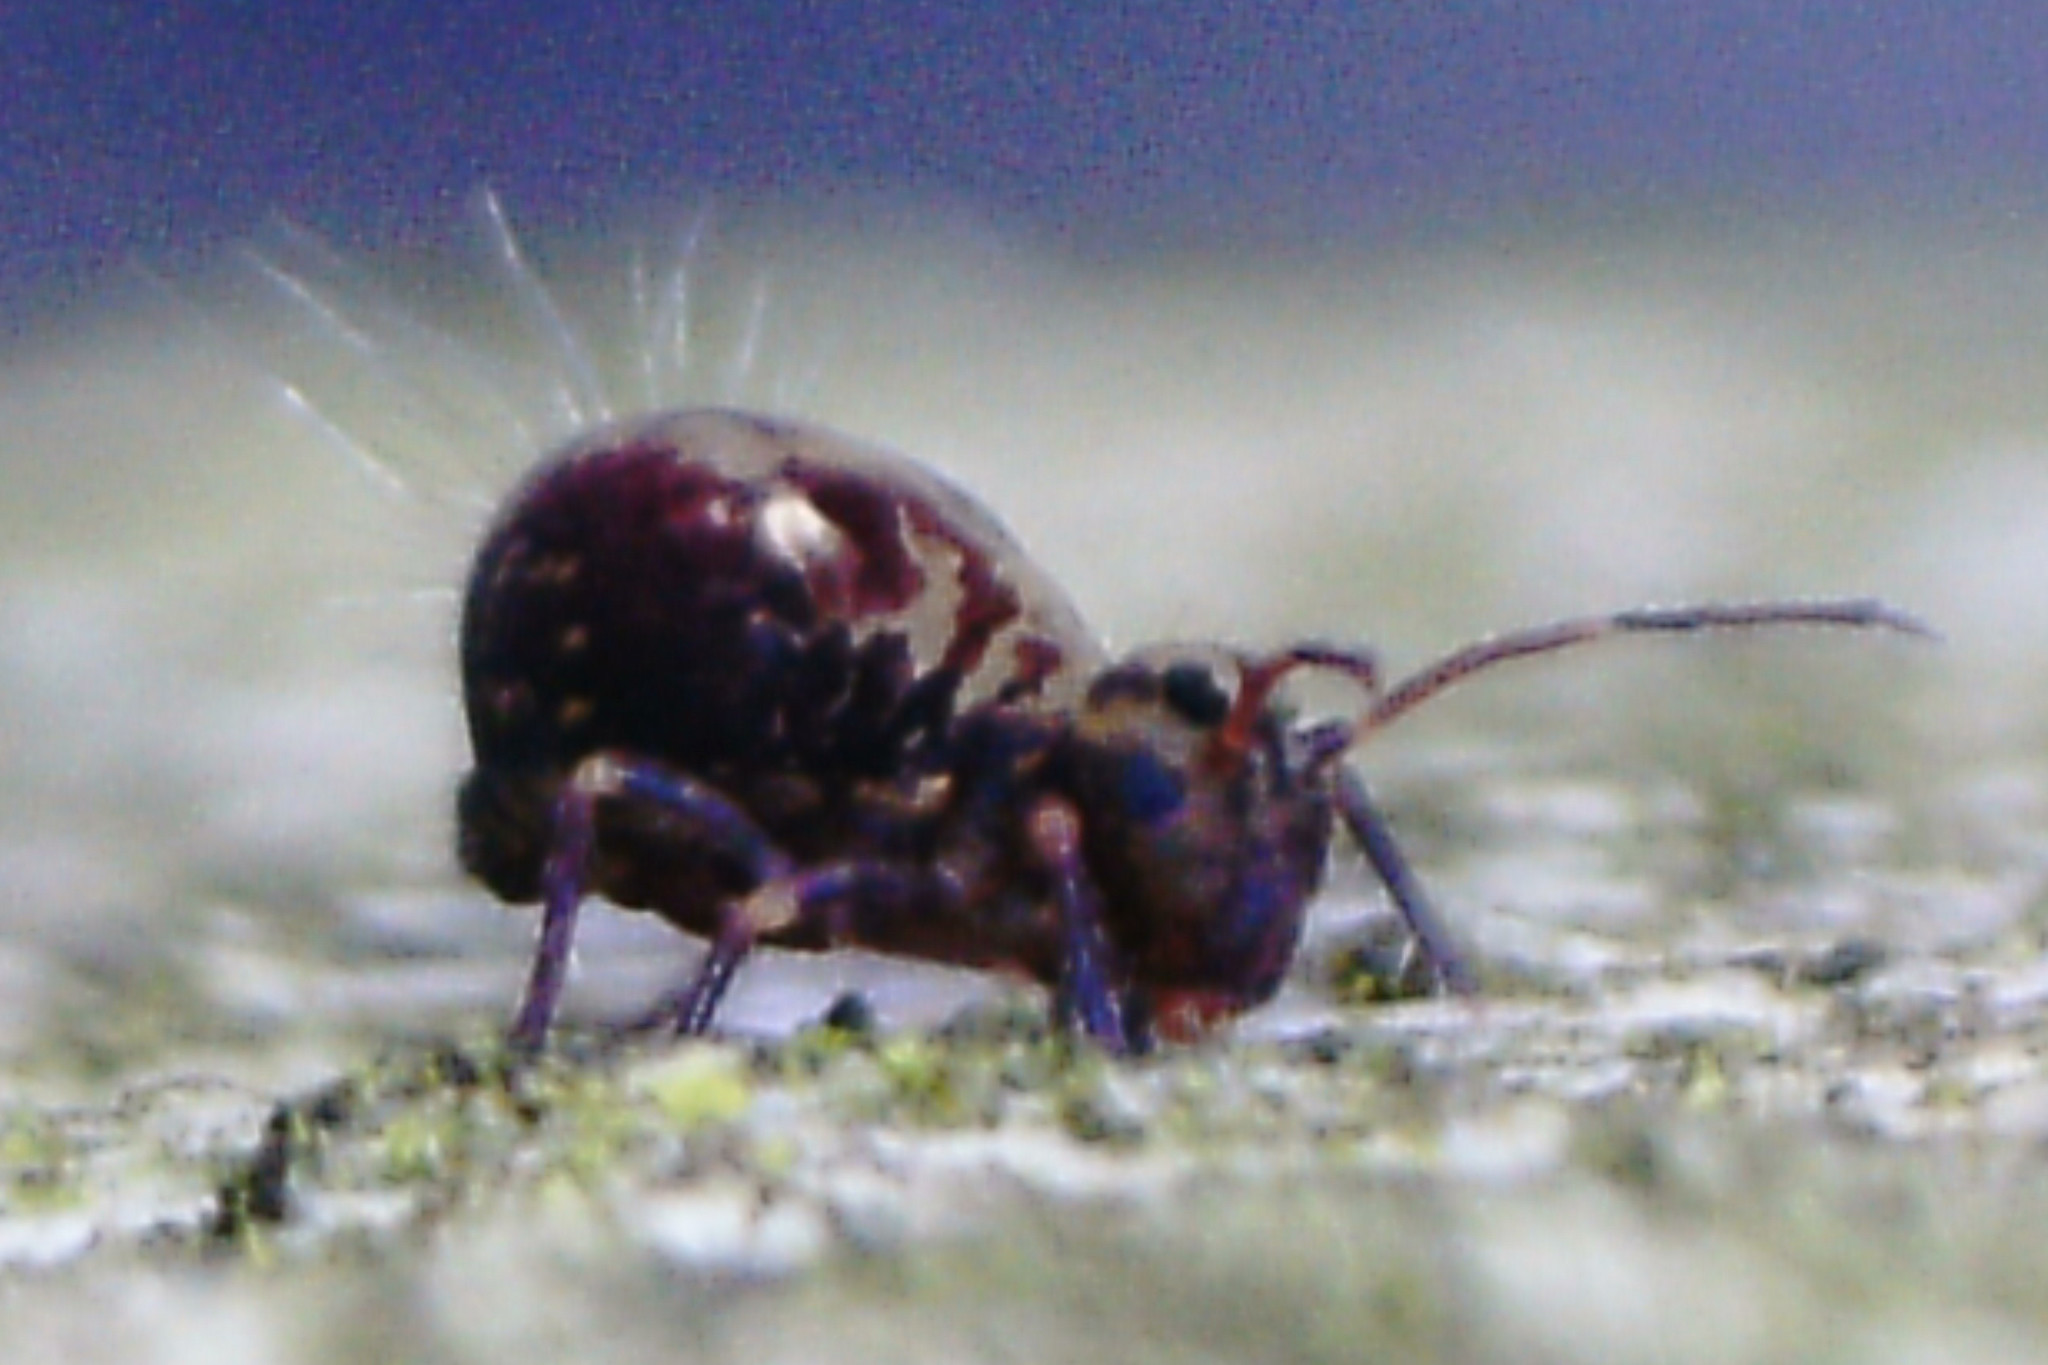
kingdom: Animalia
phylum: Arthropoda
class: Collembola
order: Symphypleona
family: Dicyrtomidae
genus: Dicyrtomina
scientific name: Dicyrtomina saundersi
